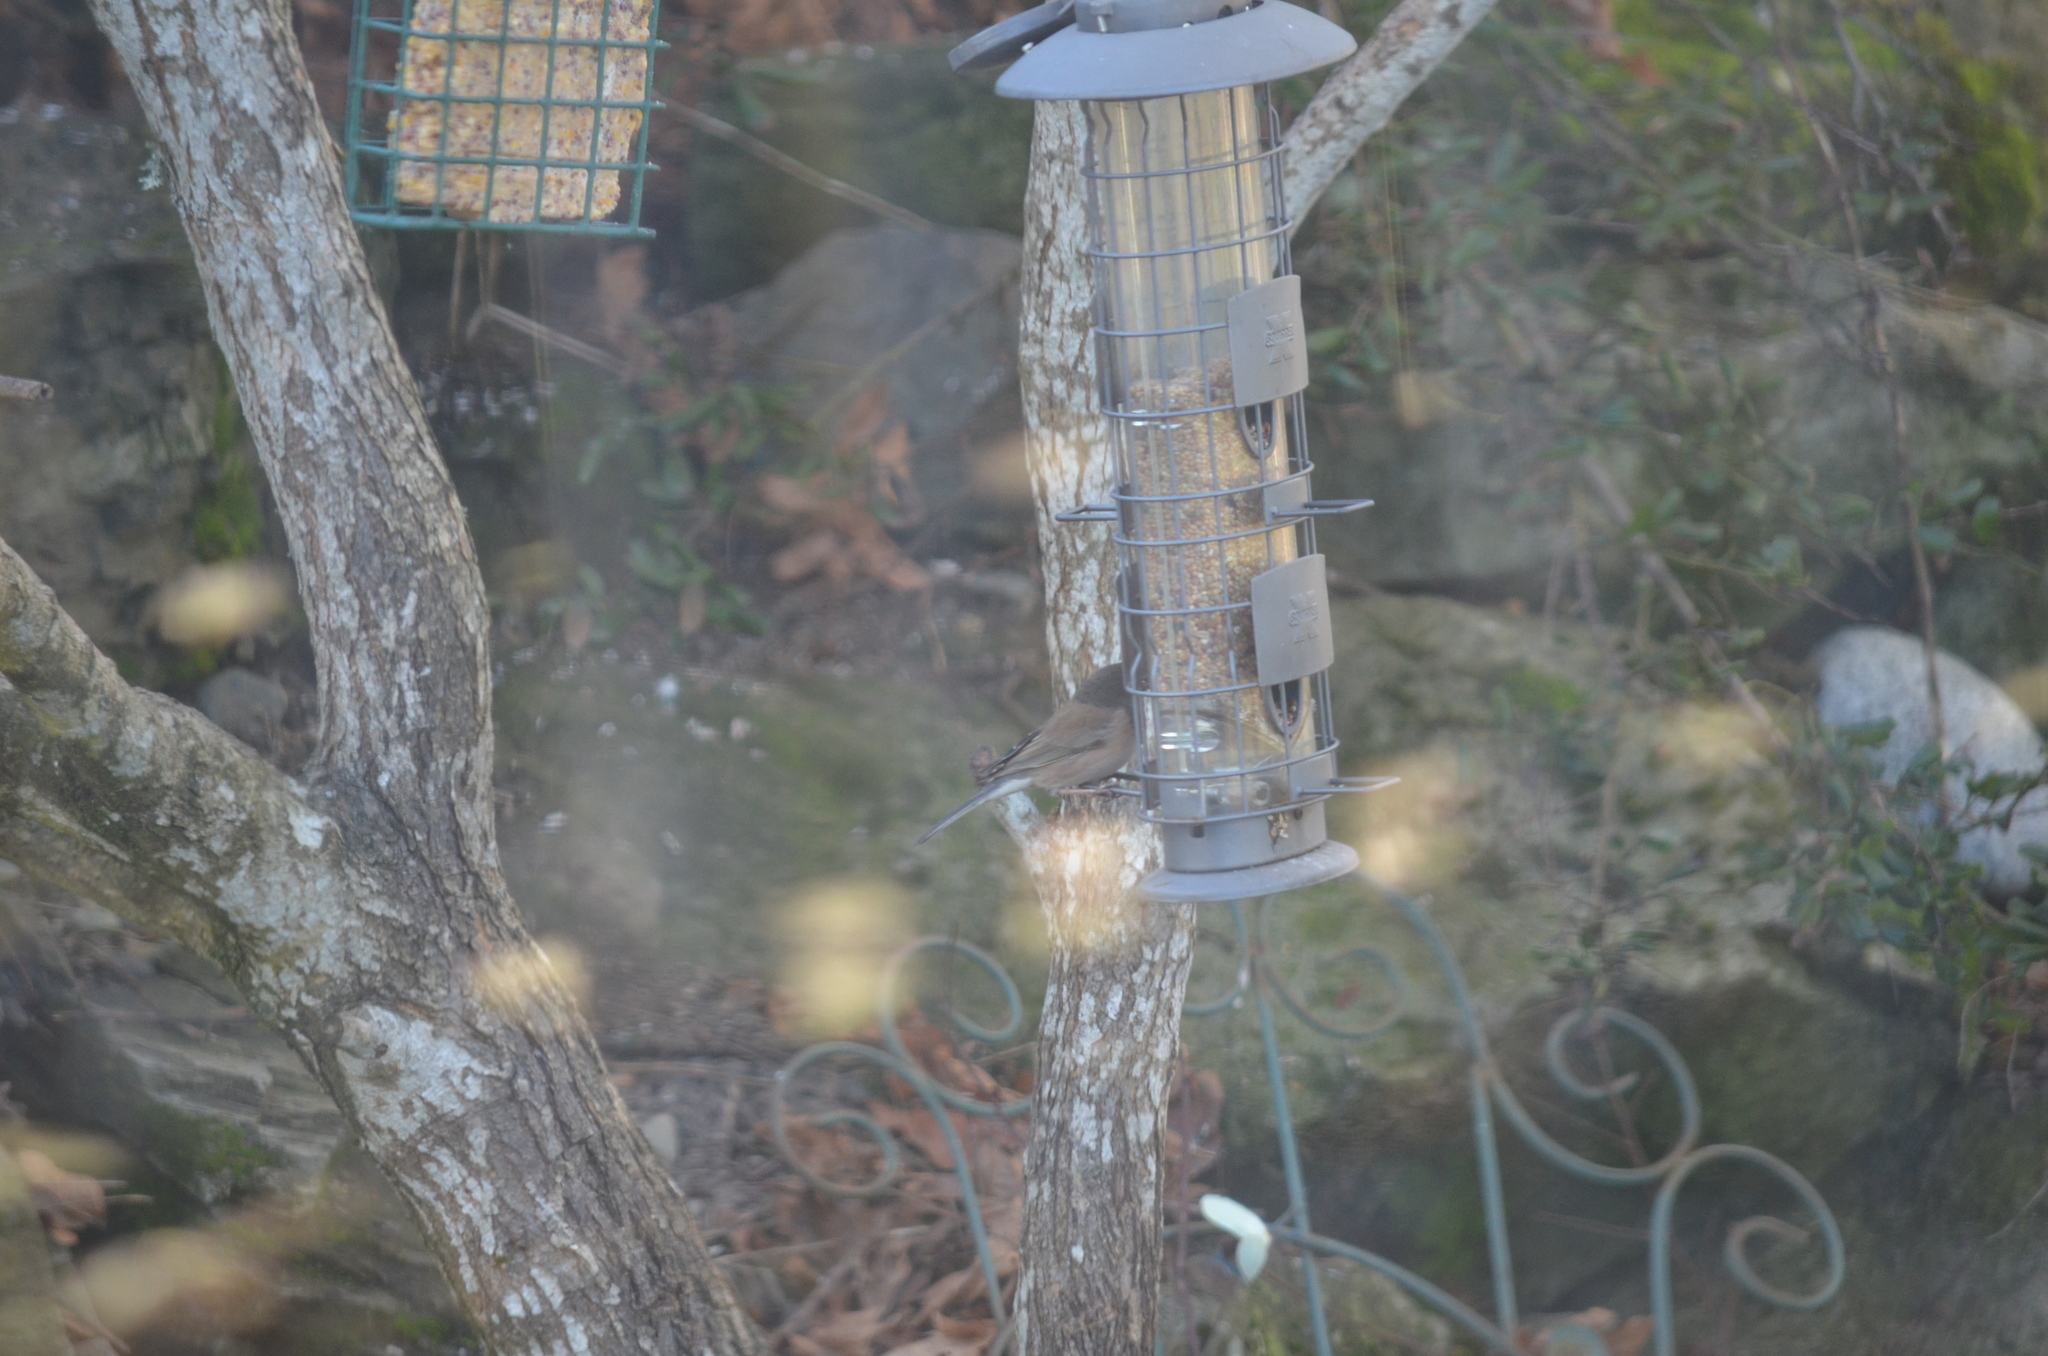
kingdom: Animalia
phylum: Chordata
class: Aves
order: Passeriformes
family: Passerellidae
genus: Junco
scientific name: Junco hyemalis
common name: Dark-eyed junco
